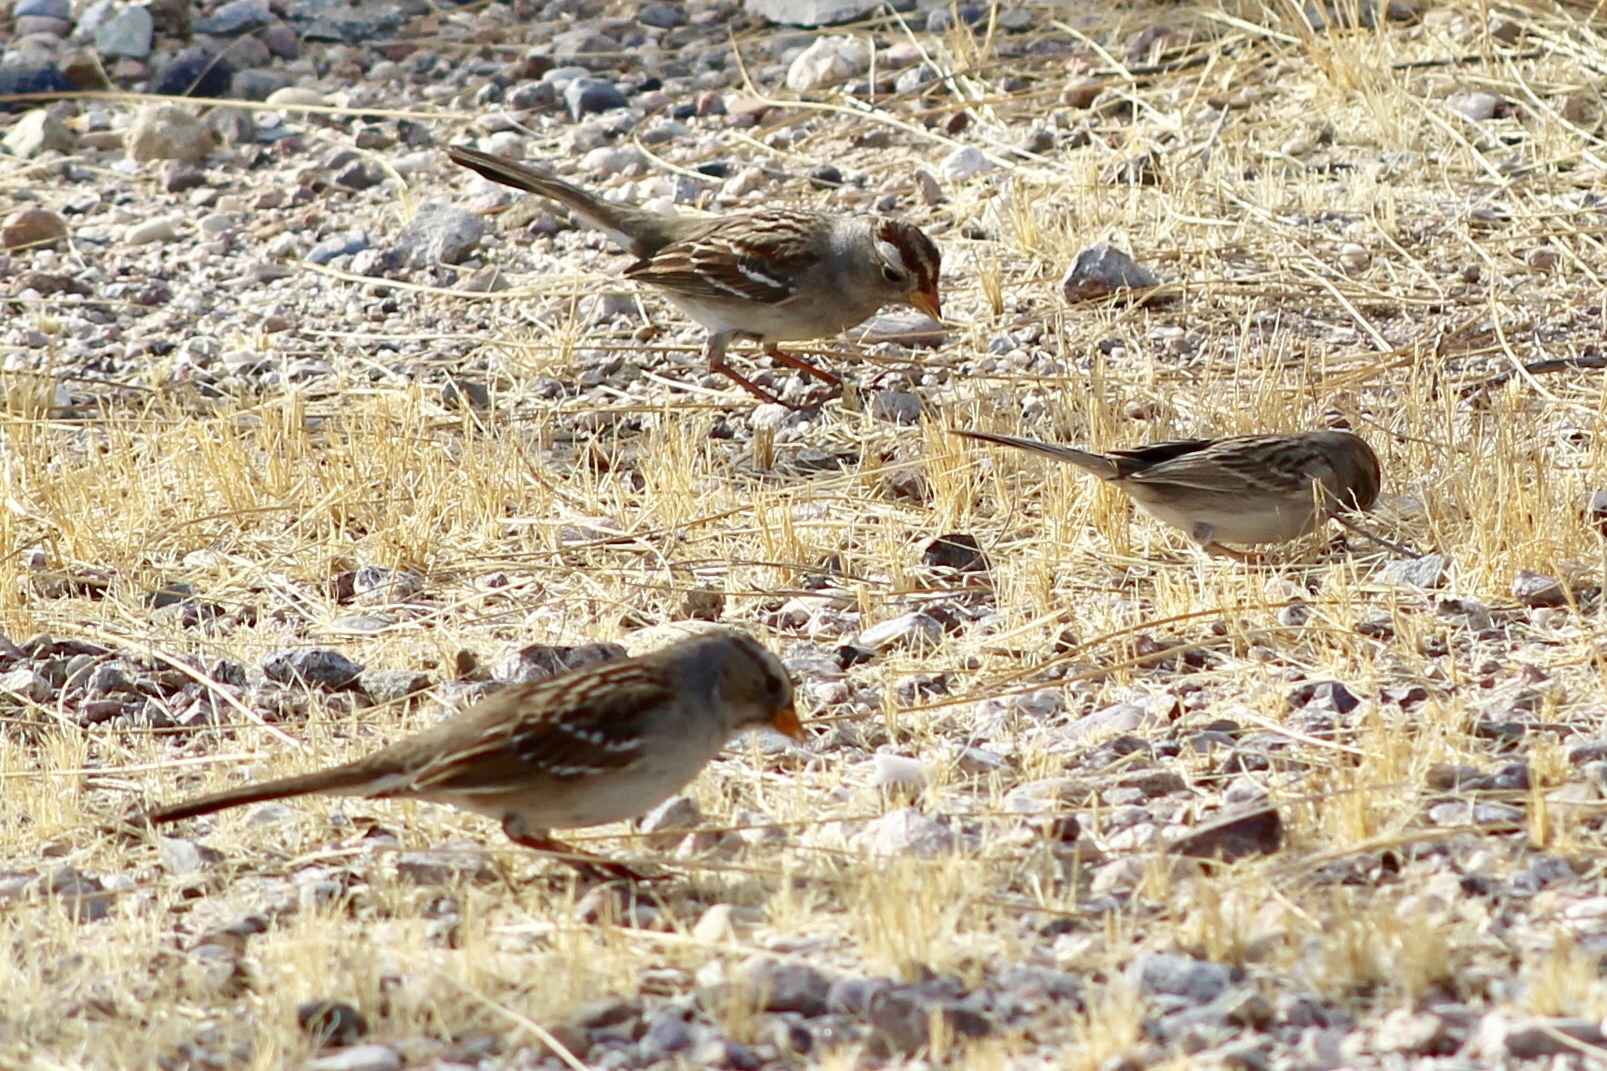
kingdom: Animalia
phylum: Chordata
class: Aves
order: Passeriformes
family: Passerellidae
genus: Zonotrichia
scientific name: Zonotrichia leucophrys
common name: White-crowned sparrow
